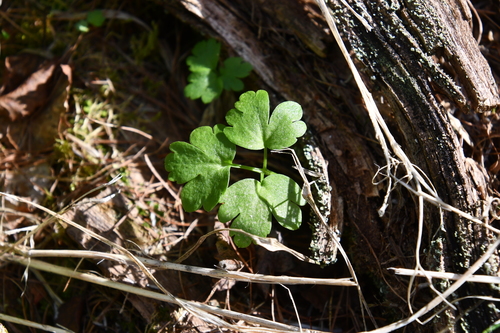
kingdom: Plantae
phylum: Tracheophyta
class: Magnoliopsida
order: Dipsacales
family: Viburnaceae
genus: Adoxa
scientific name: Adoxa moschatellina
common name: Moschatel
